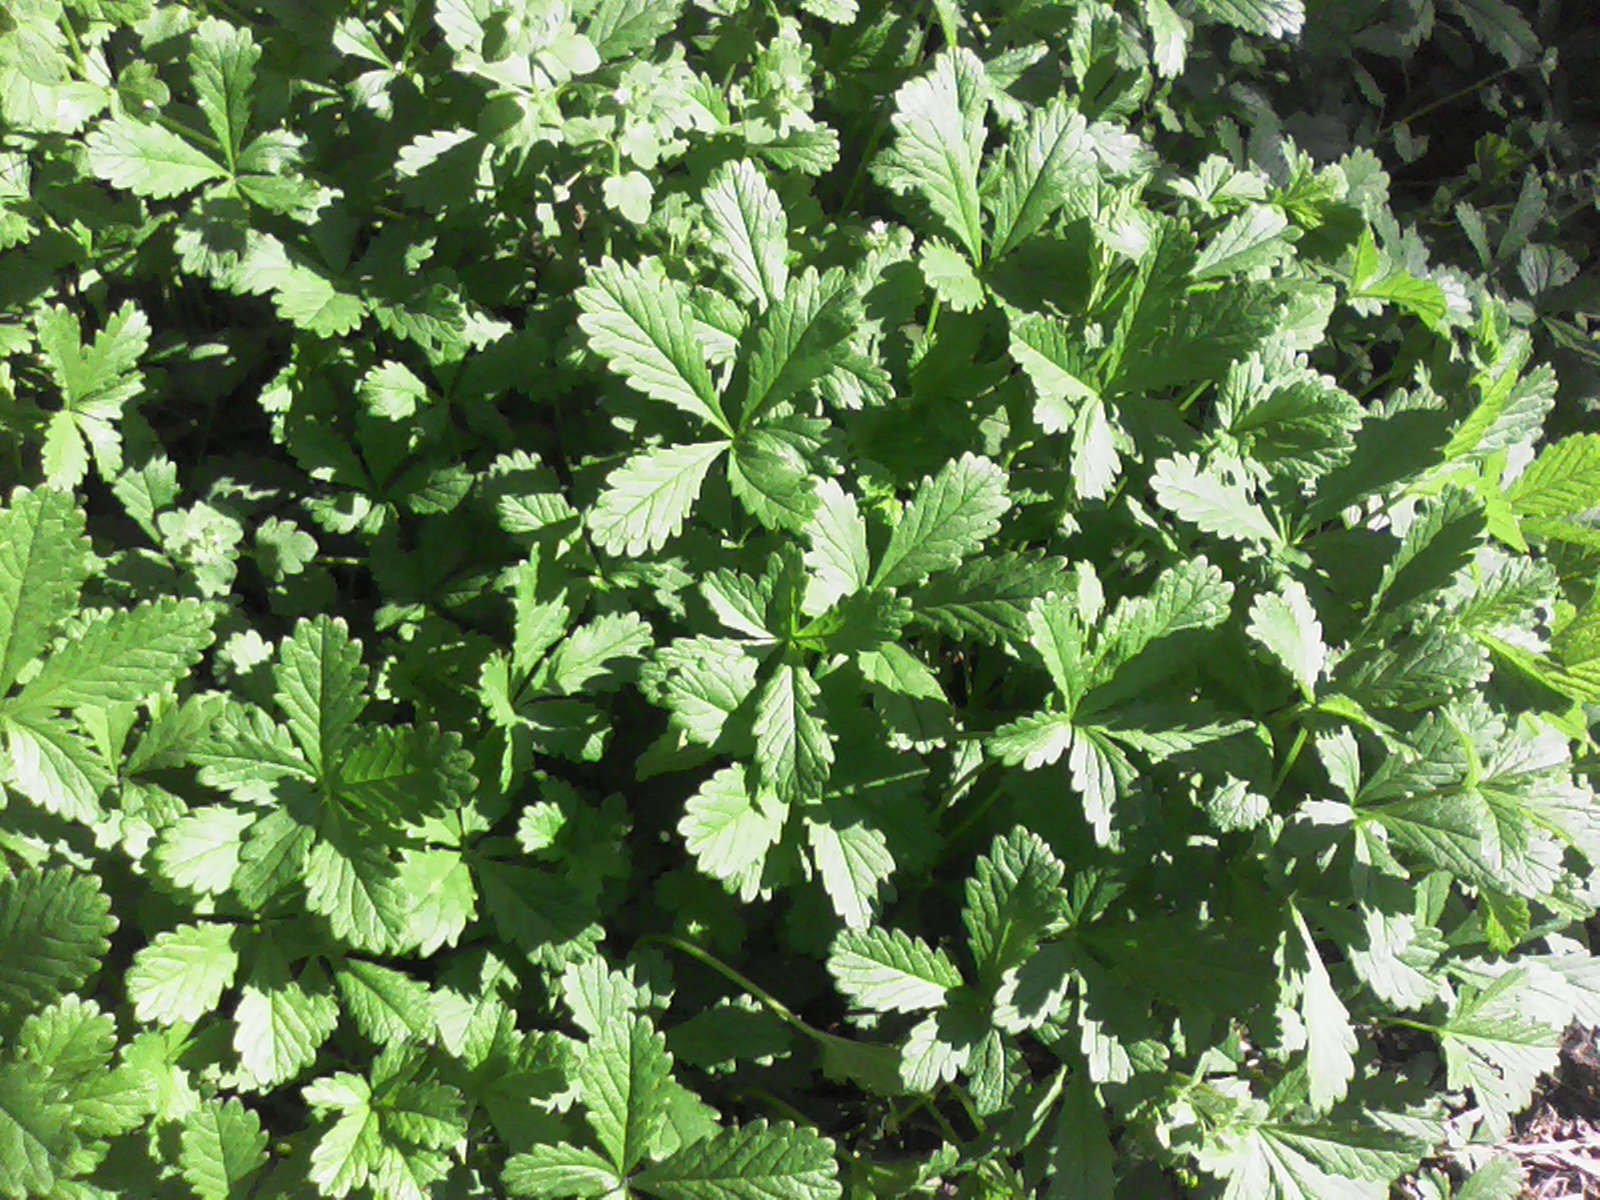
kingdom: Plantae
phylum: Tracheophyta
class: Magnoliopsida
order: Rosales
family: Rosaceae
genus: Potentilla
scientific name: Potentilla reptans
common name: Creeping cinquefoil
